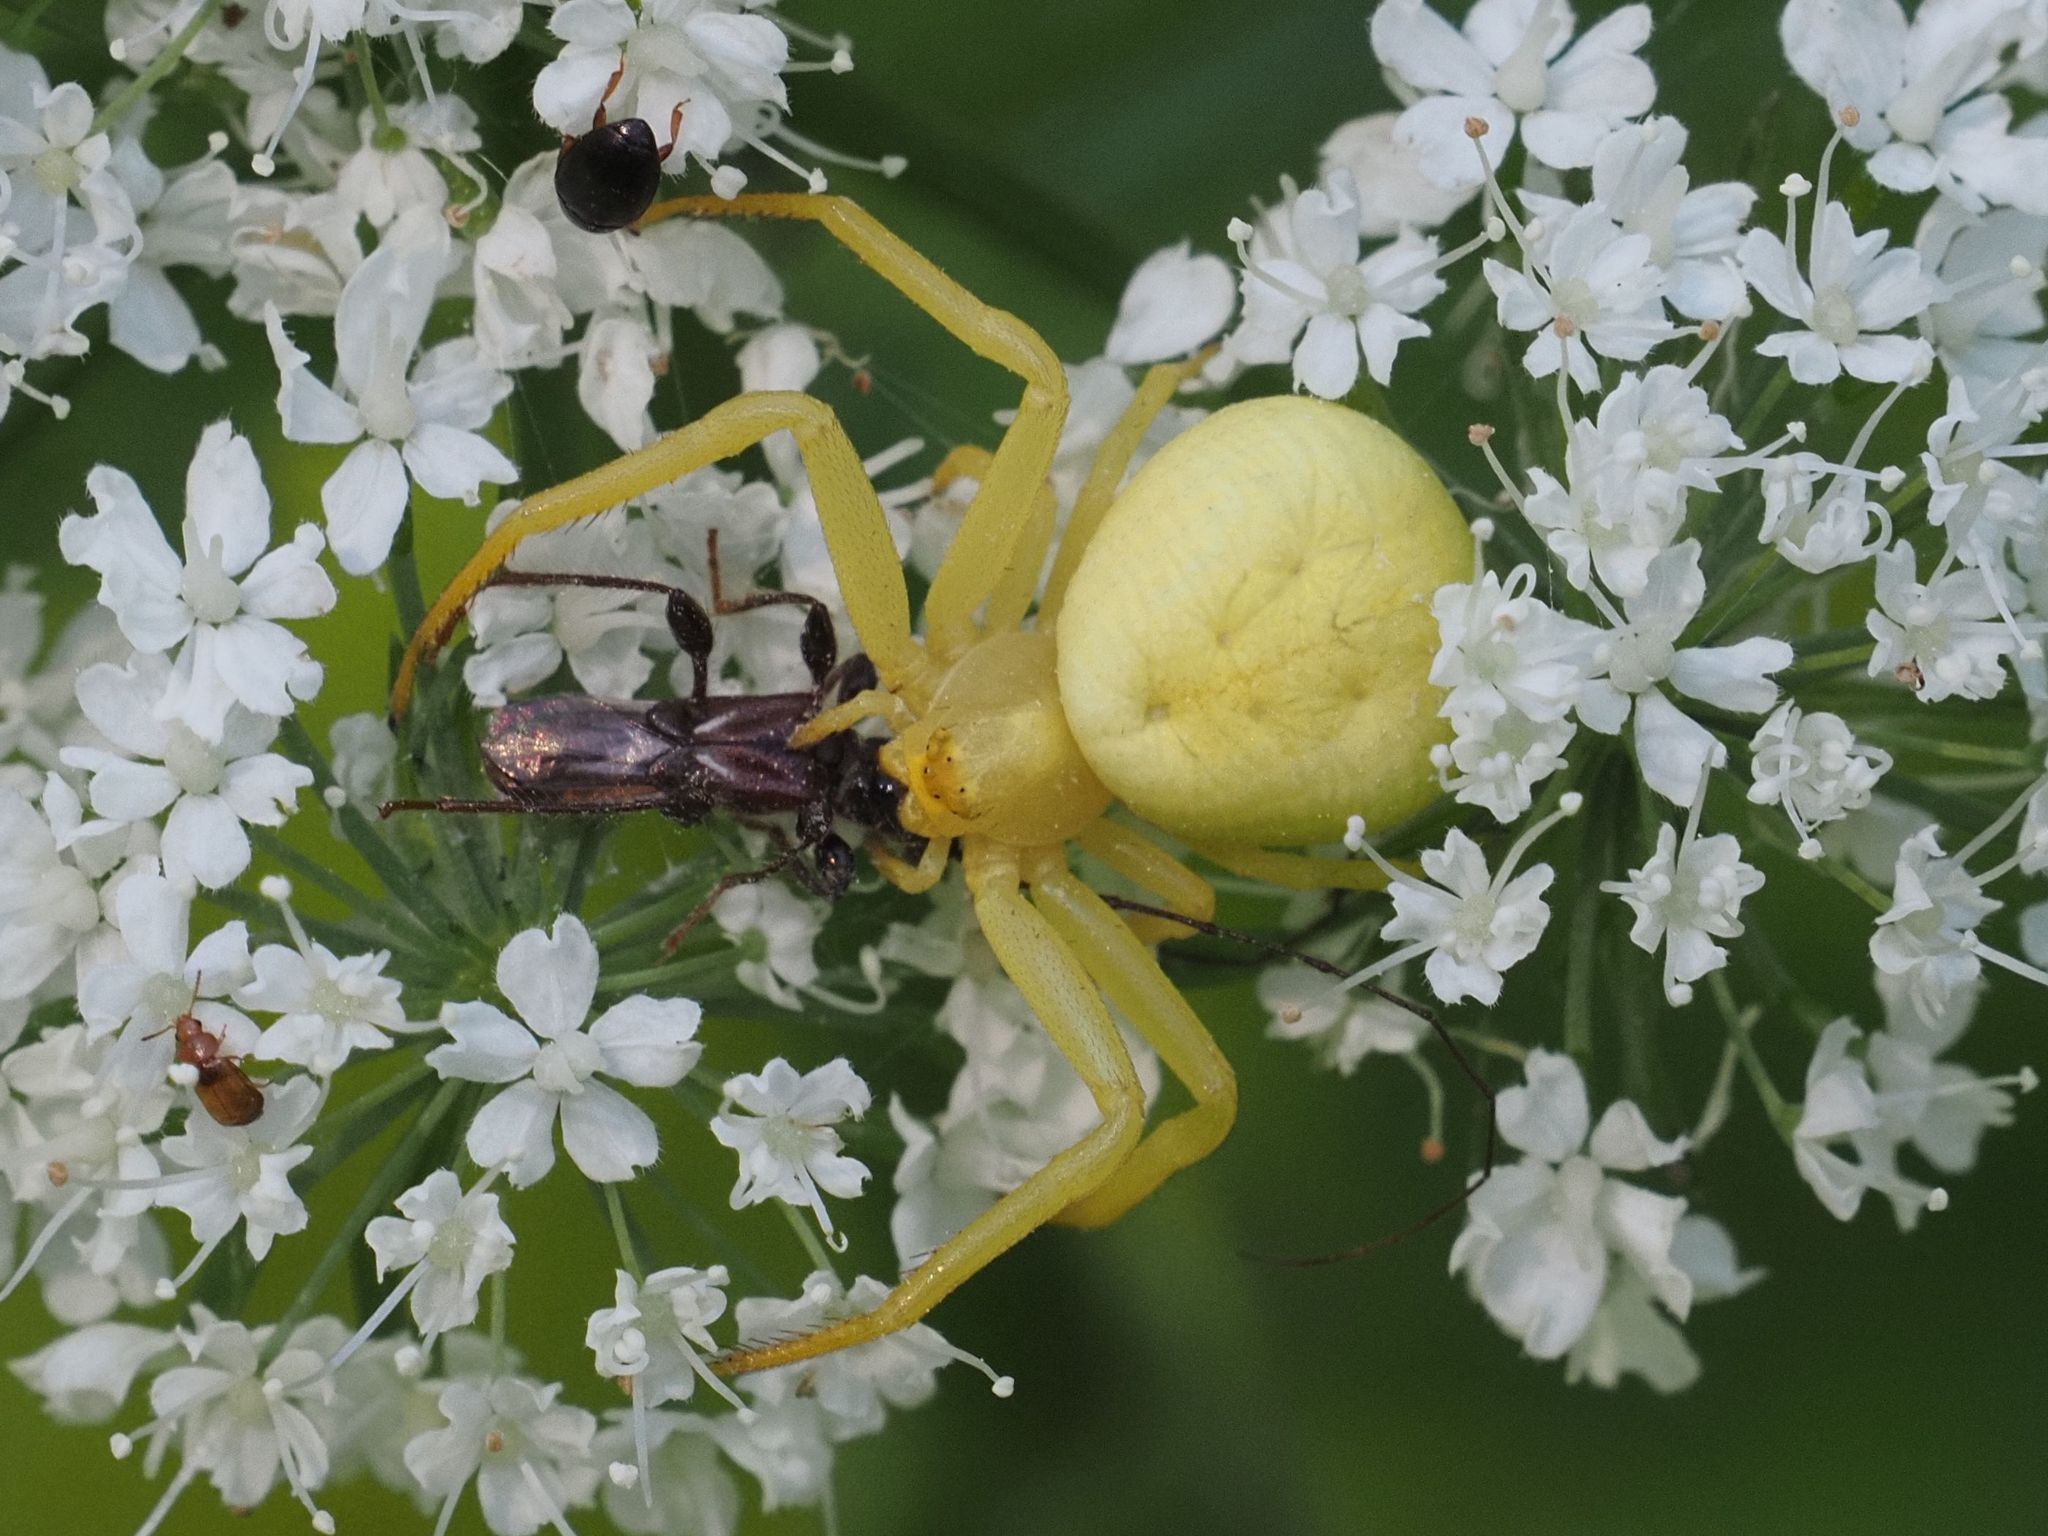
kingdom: Animalia
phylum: Arthropoda
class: Arachnida
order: Araneae
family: Thomisidae
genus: Misumena
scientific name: Misumena vatia
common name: Goldenrod crab spider
